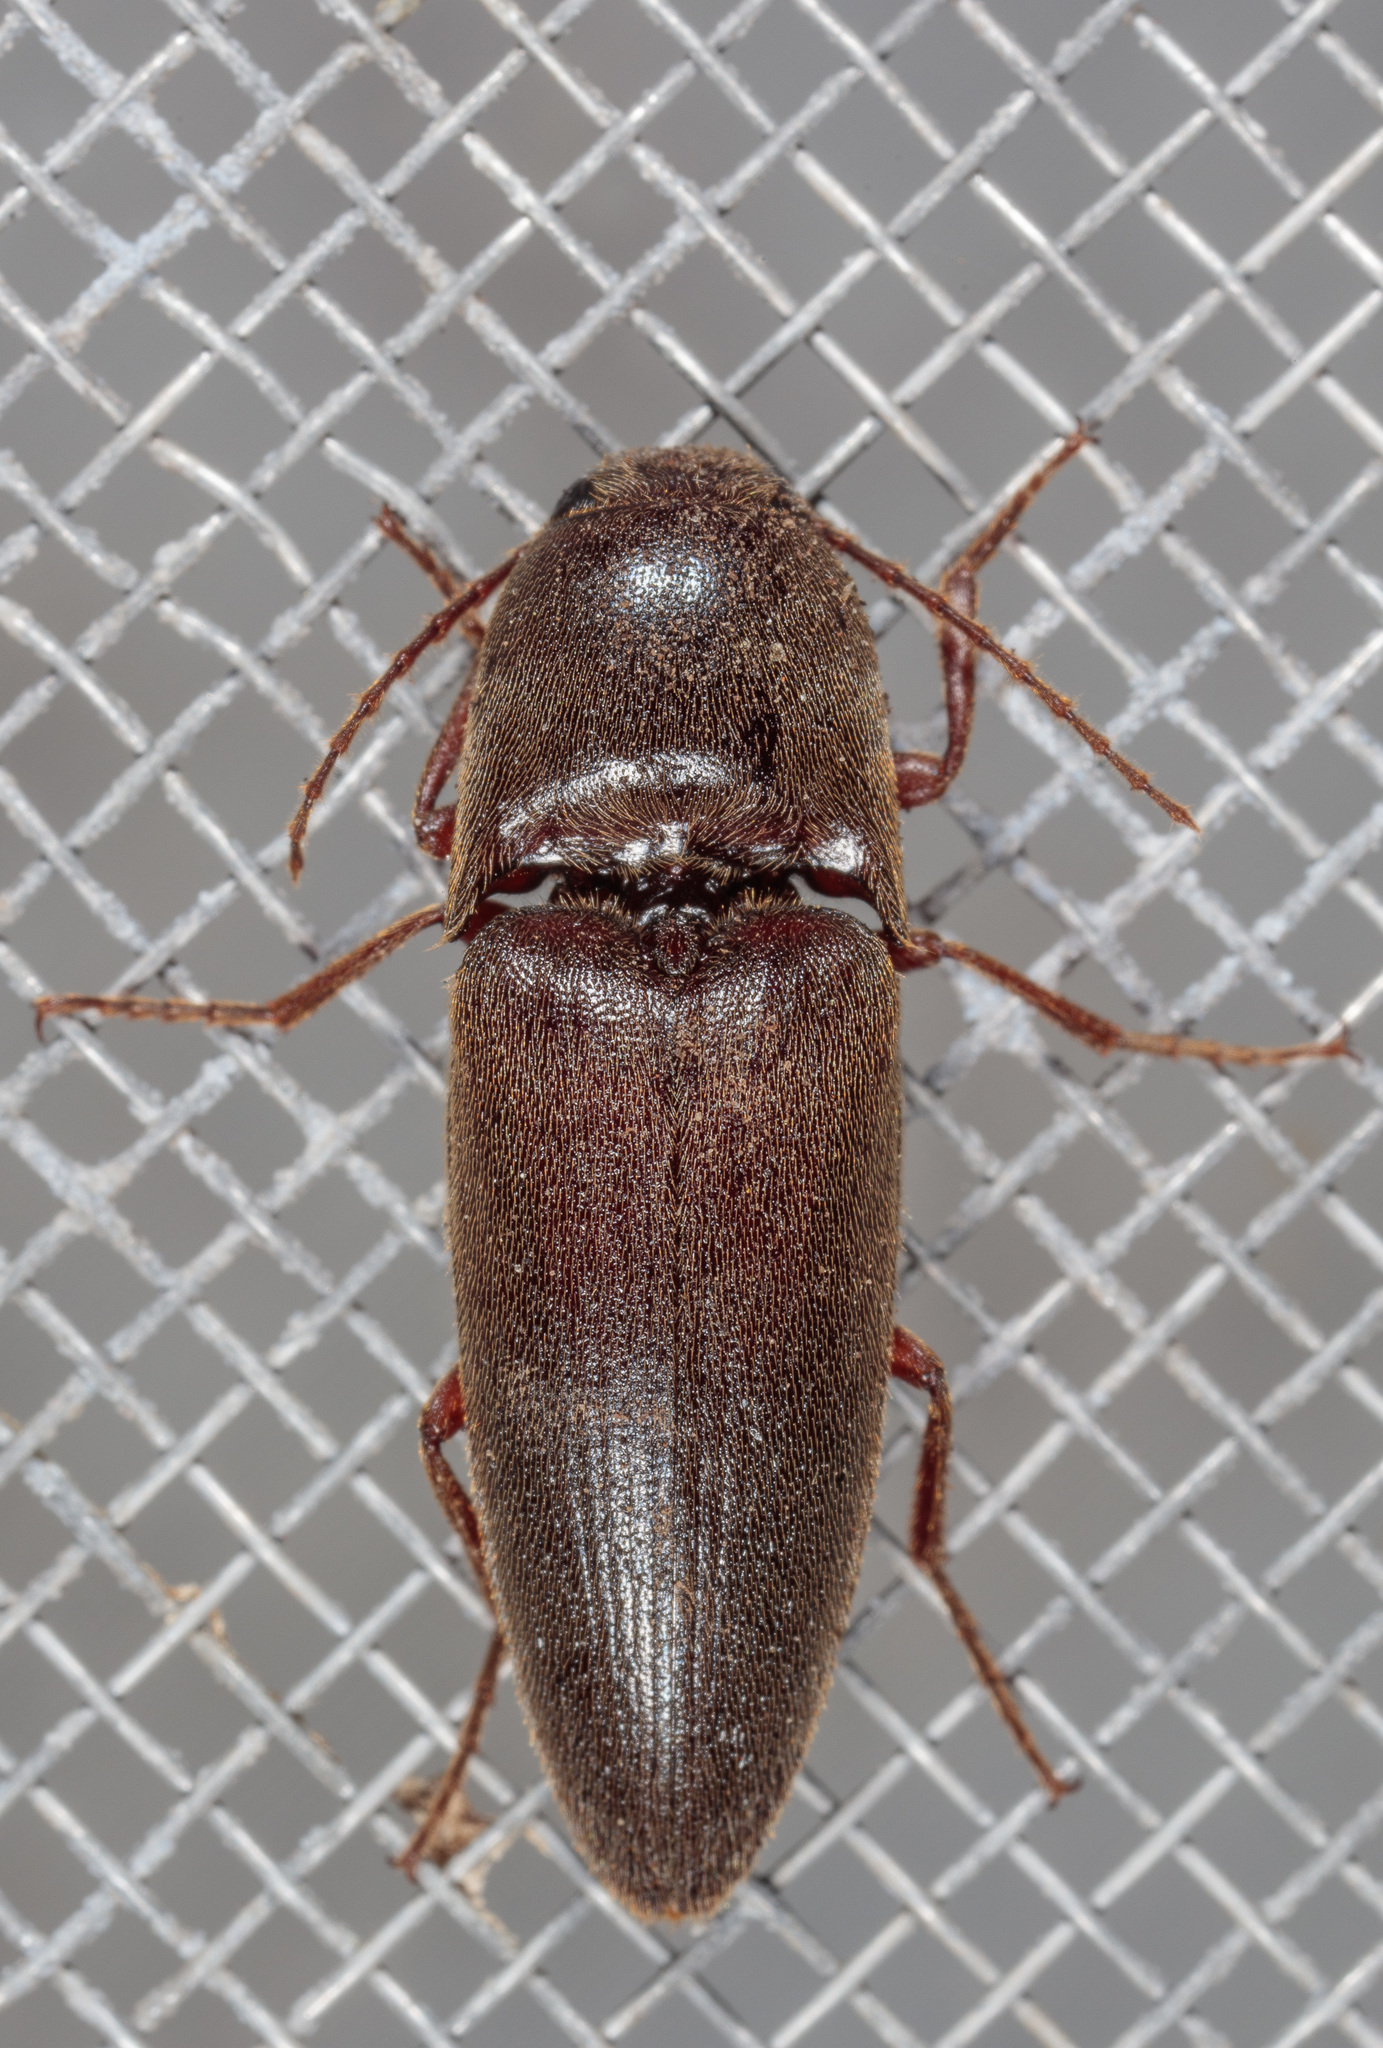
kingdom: Animalia
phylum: Arthropoda
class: Insecta
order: Coleoptera
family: Elateridae
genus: Diplostethus
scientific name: Diplostethus
